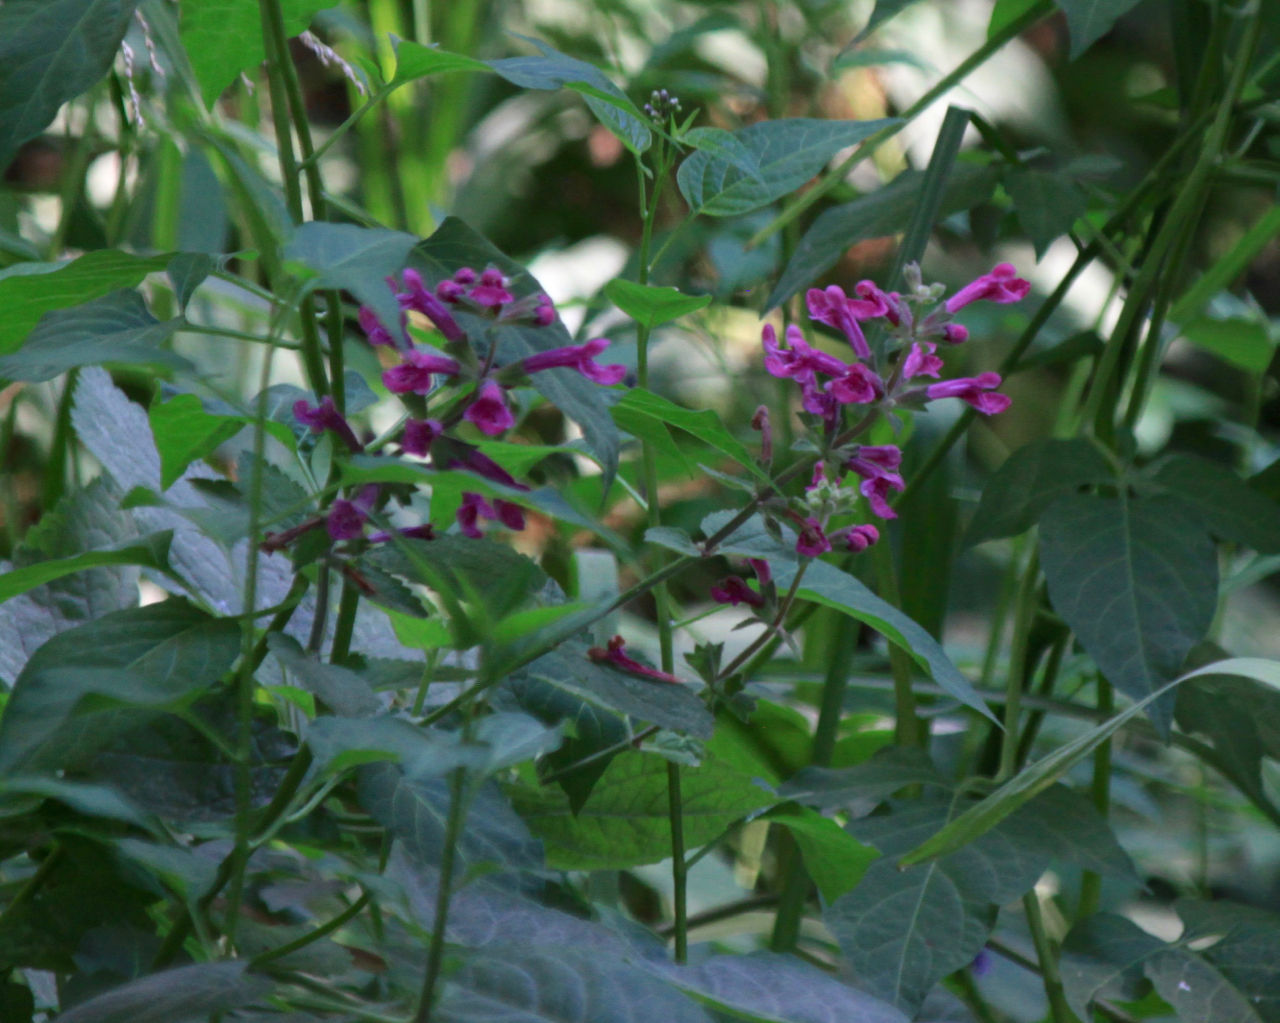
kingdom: Plantae
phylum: Tracheophyta
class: Magnoliopsida
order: Lamiales
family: Lamiaceae
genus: Stachys
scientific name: Stachys chamissonis
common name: Coastal hedge-nettle
